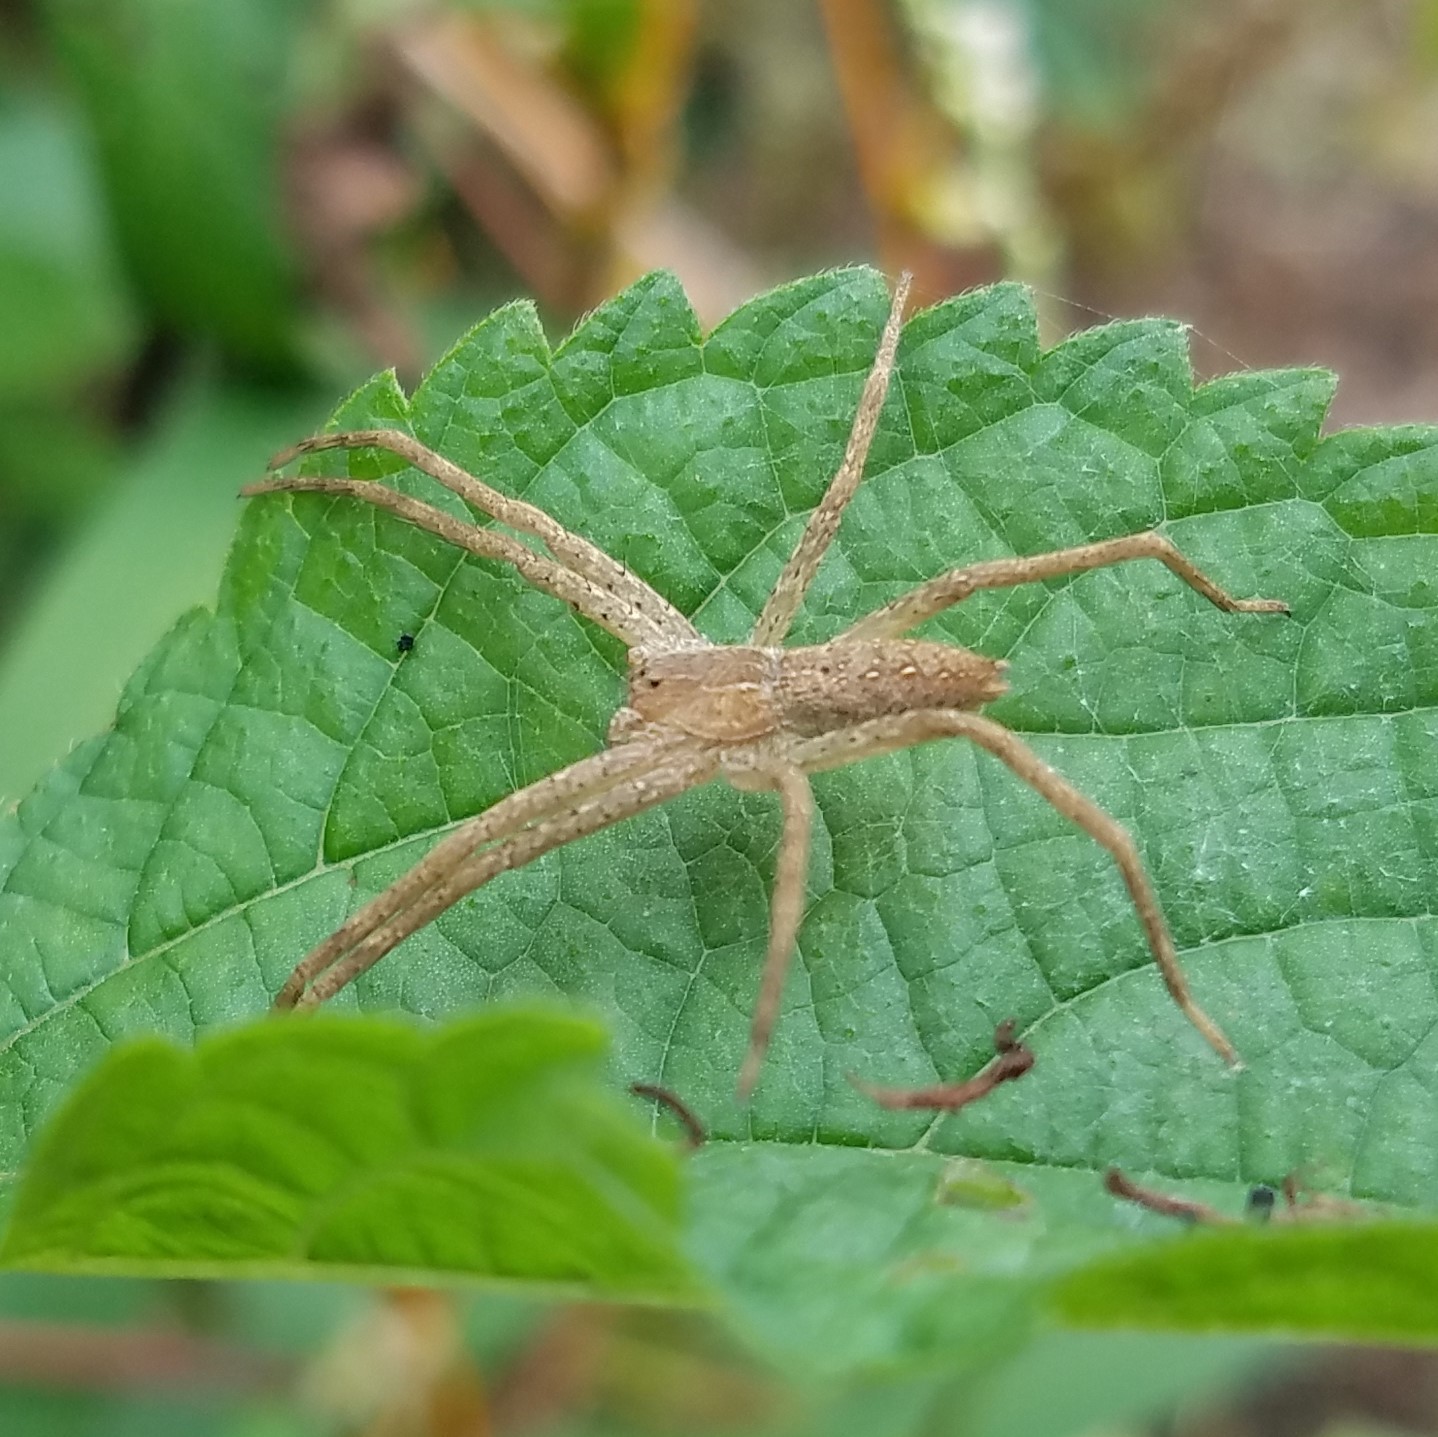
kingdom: Animalia
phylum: Arthropoda
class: Arachnida
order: Araneae
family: Pisauridae
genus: Pisaurina
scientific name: Pisaurina mira
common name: American nursery web spider
